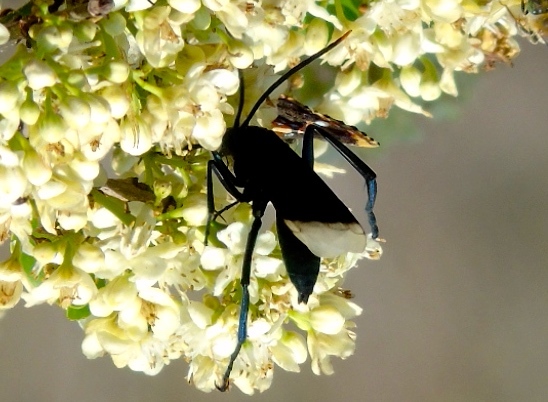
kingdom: Animalia
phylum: Arthropoda
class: Insecta
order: Hymenoptera
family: Pompilidae
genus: Pepsis
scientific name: Pepsis
